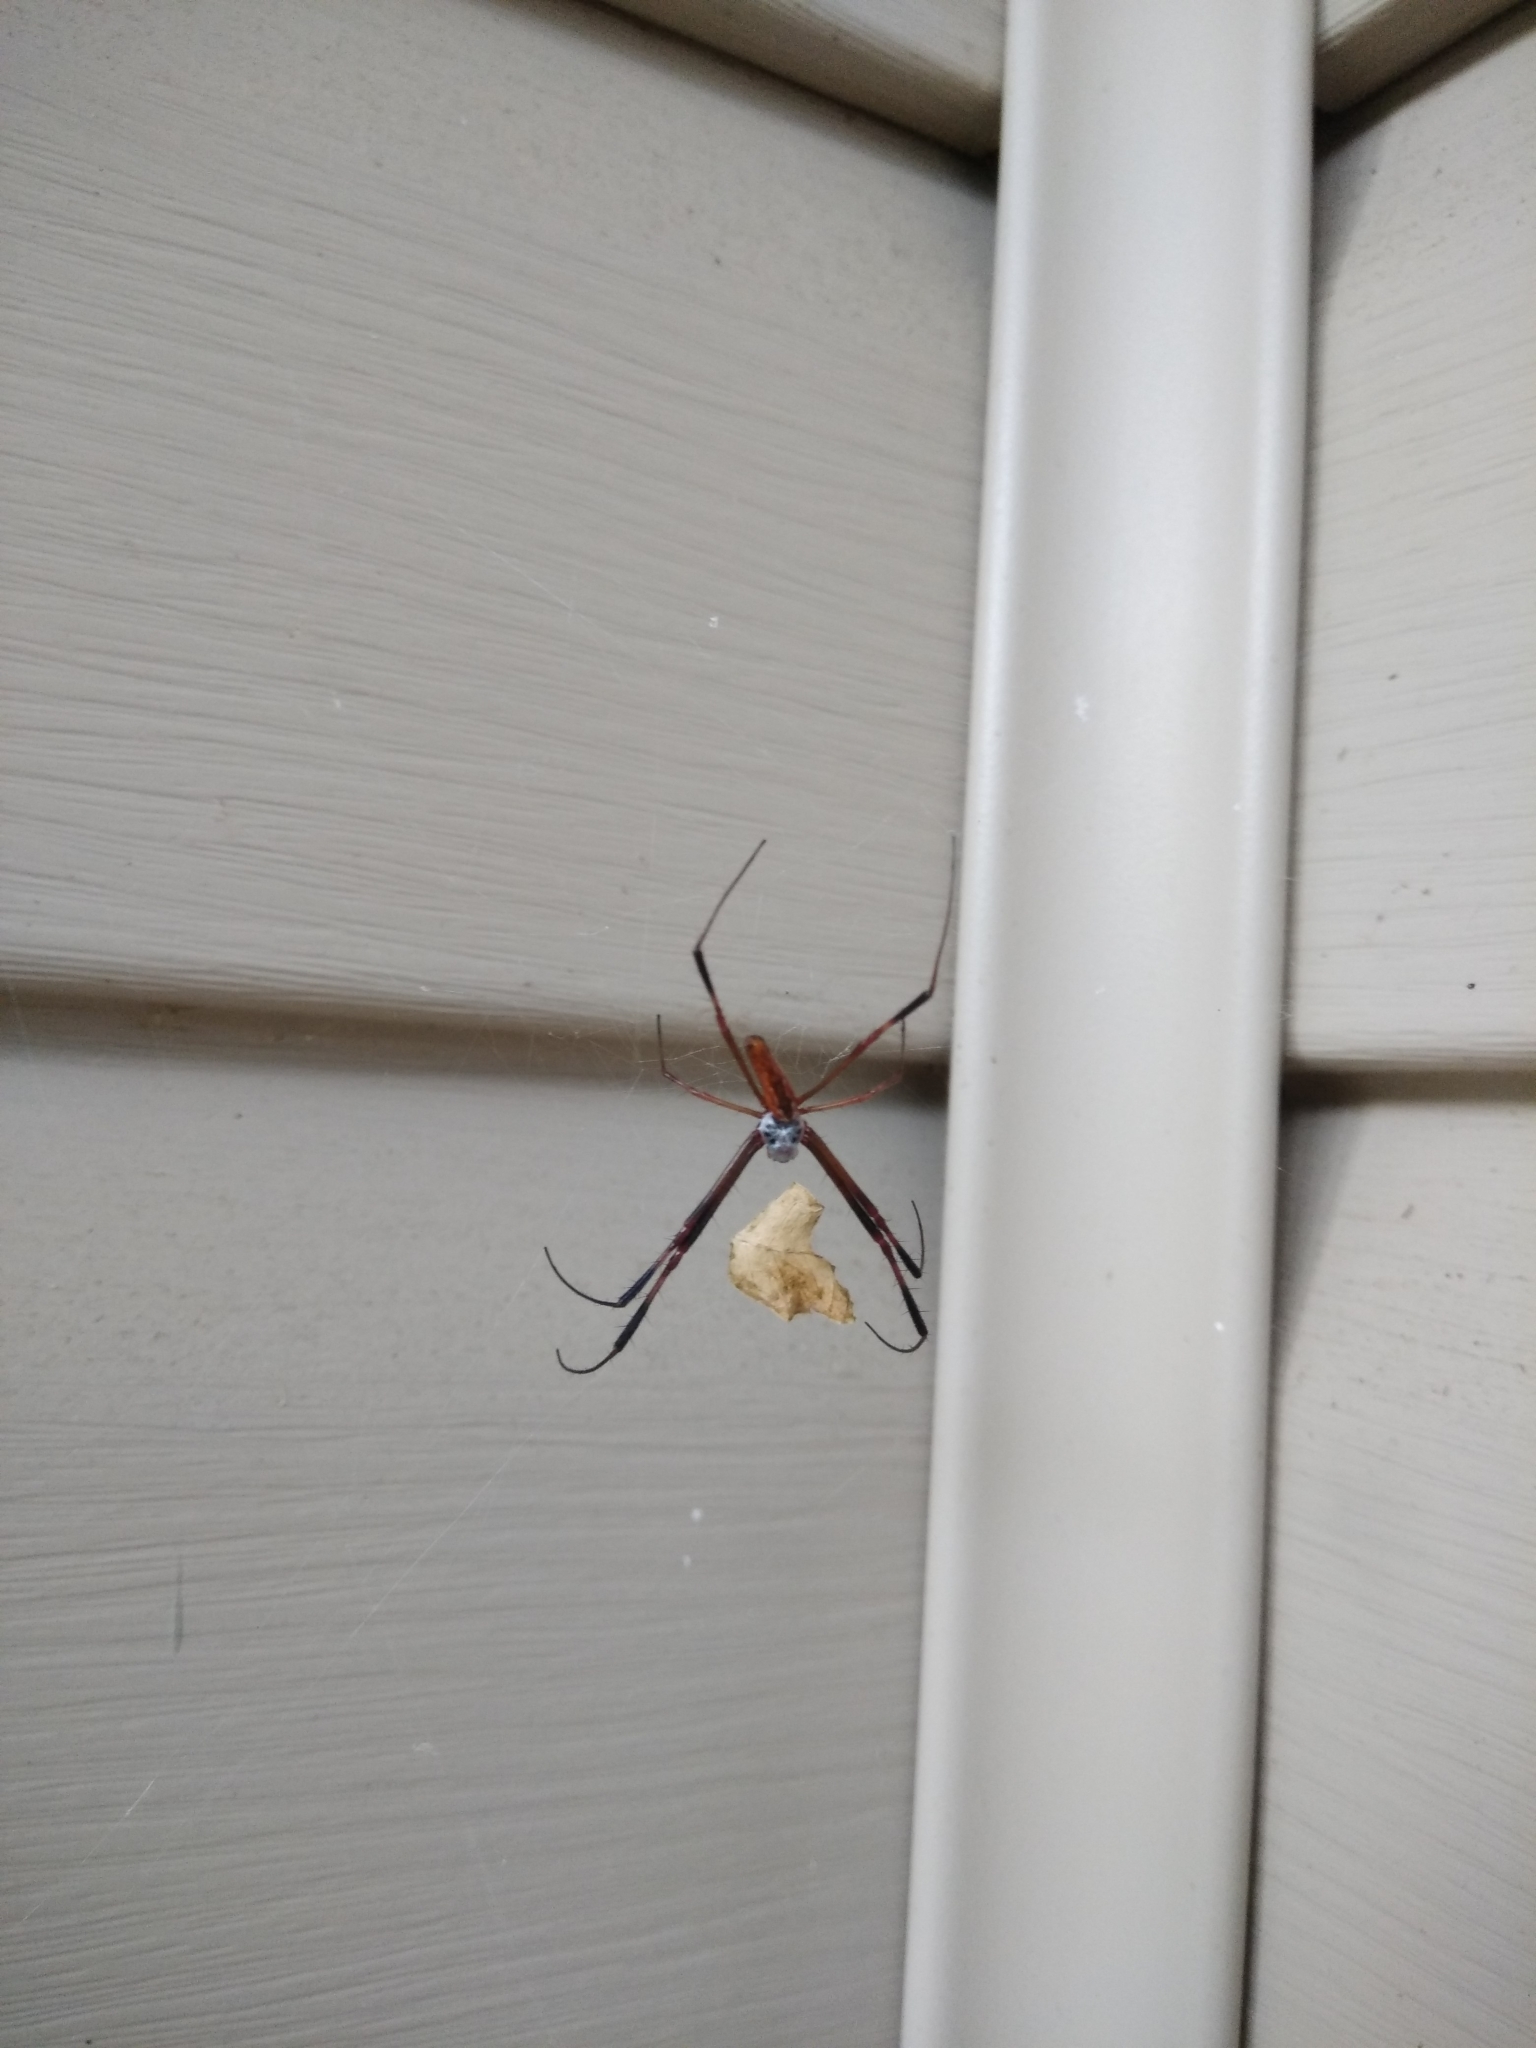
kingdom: Animalia
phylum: Arthropoda
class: Arachnida
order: Araneae
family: Araneidae
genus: Trichonephila
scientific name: Trichonephila clavipes
